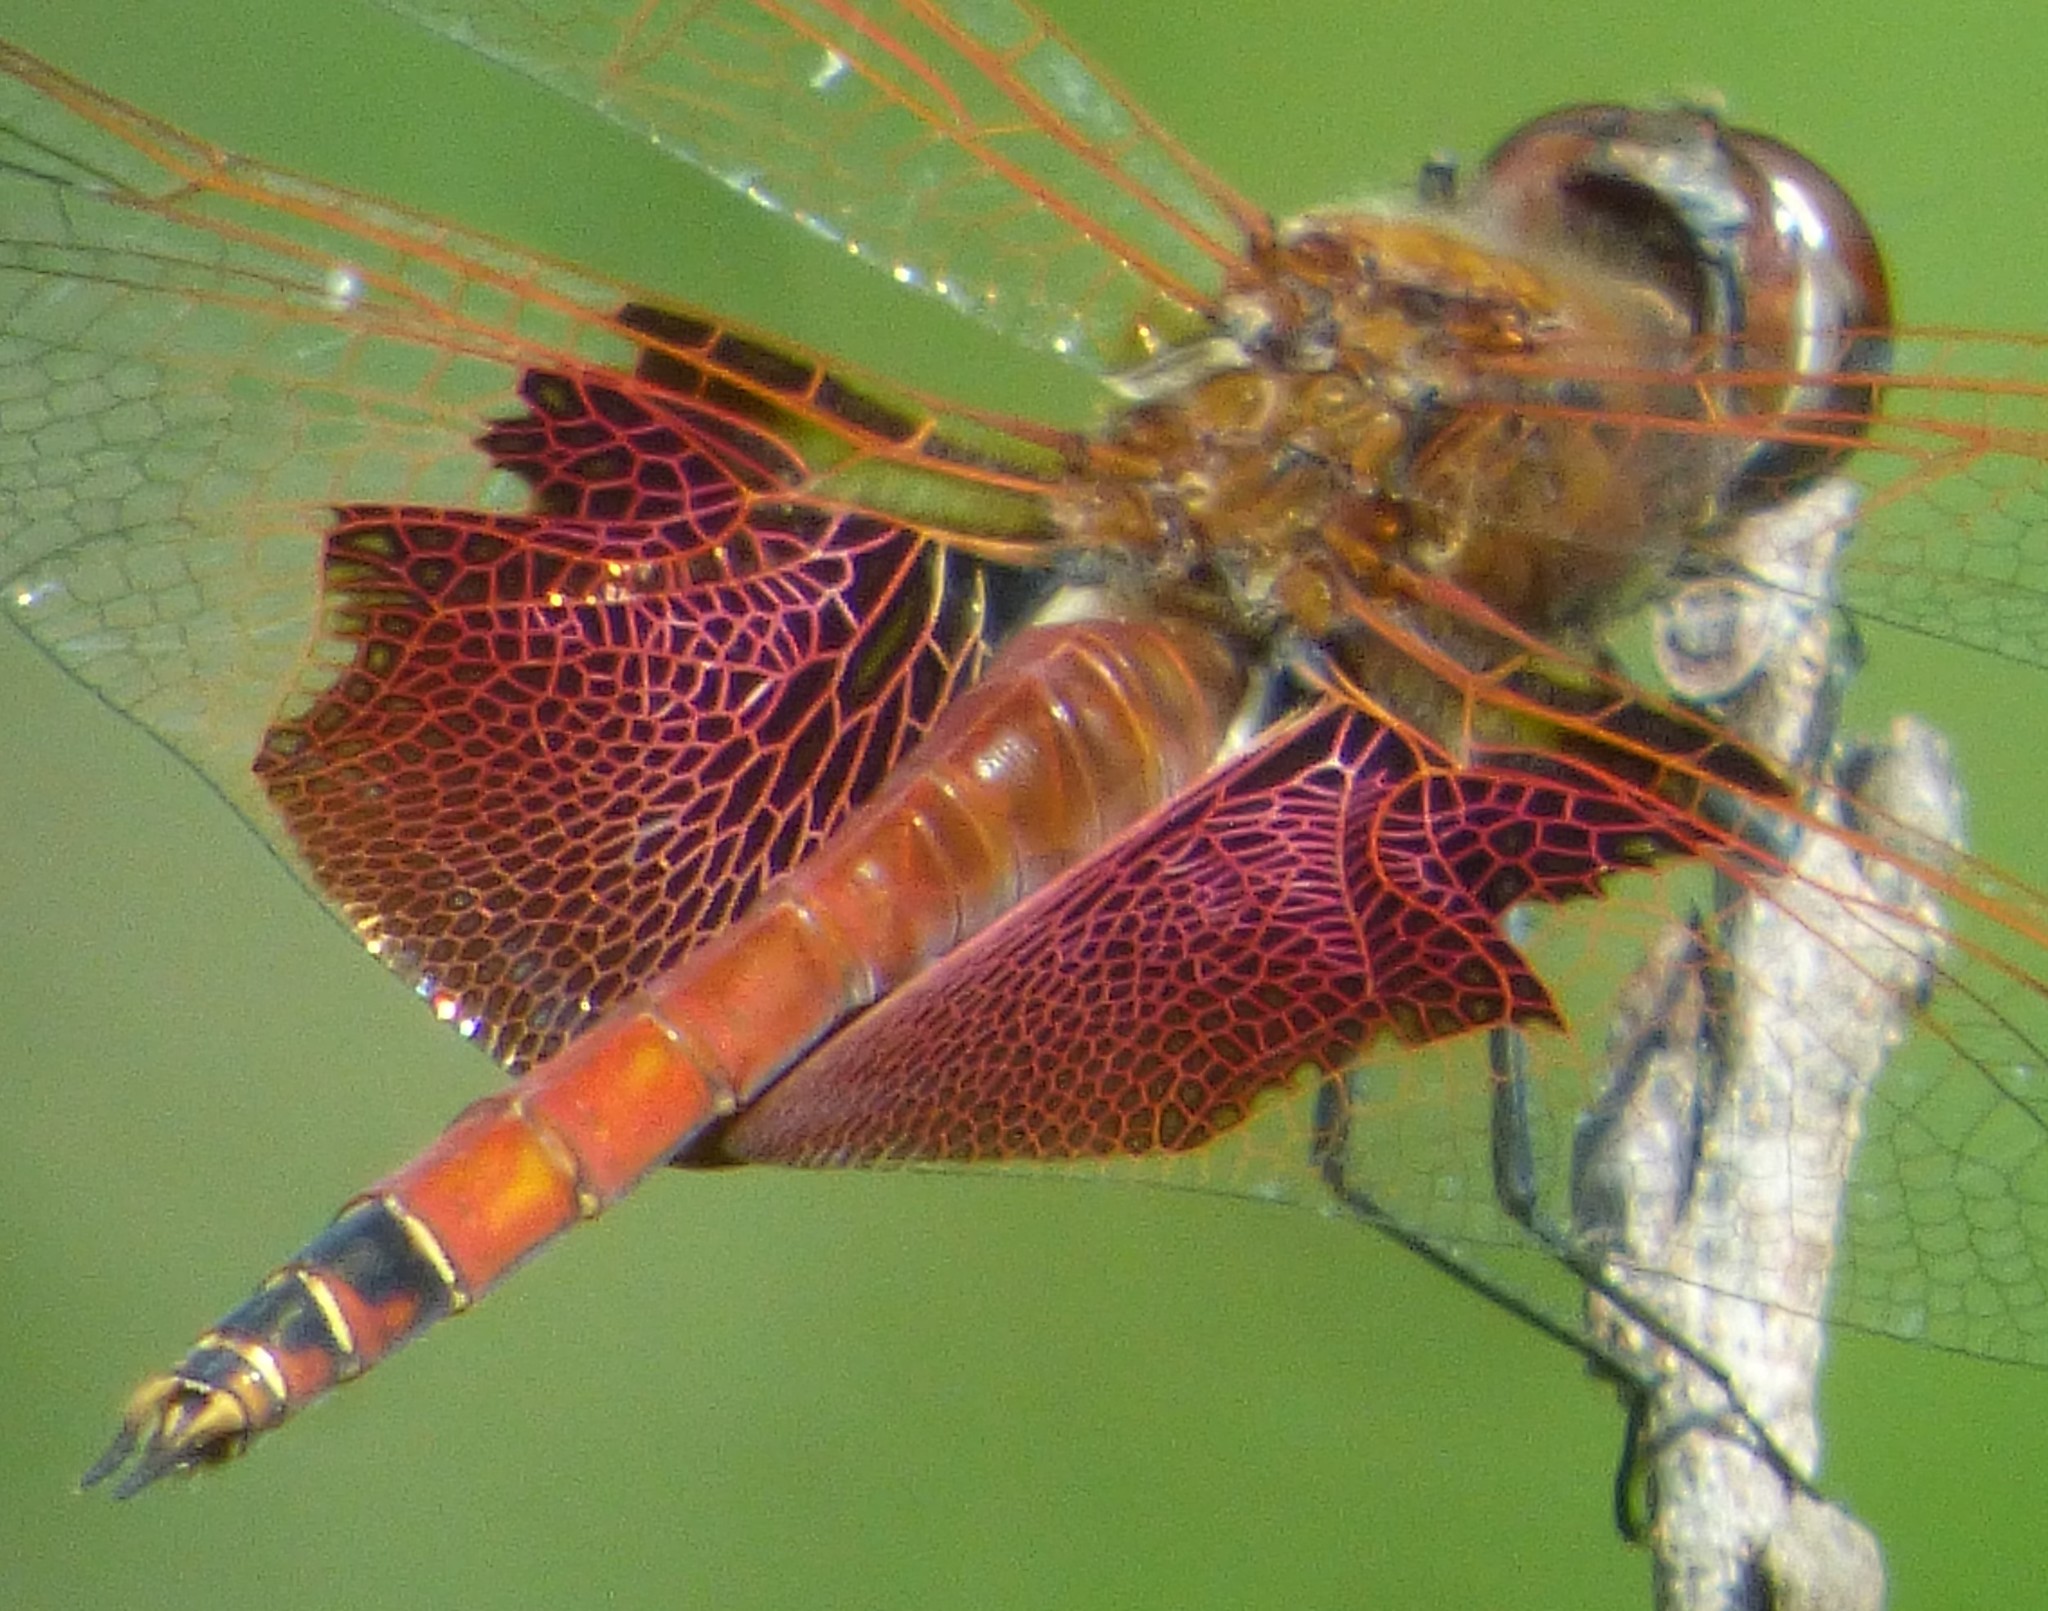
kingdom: Animalia
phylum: Arthropoda
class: Insecta
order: Odonata
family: Libellulidae
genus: Tramea
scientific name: Tramea carolina
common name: Carolina saddlebags
